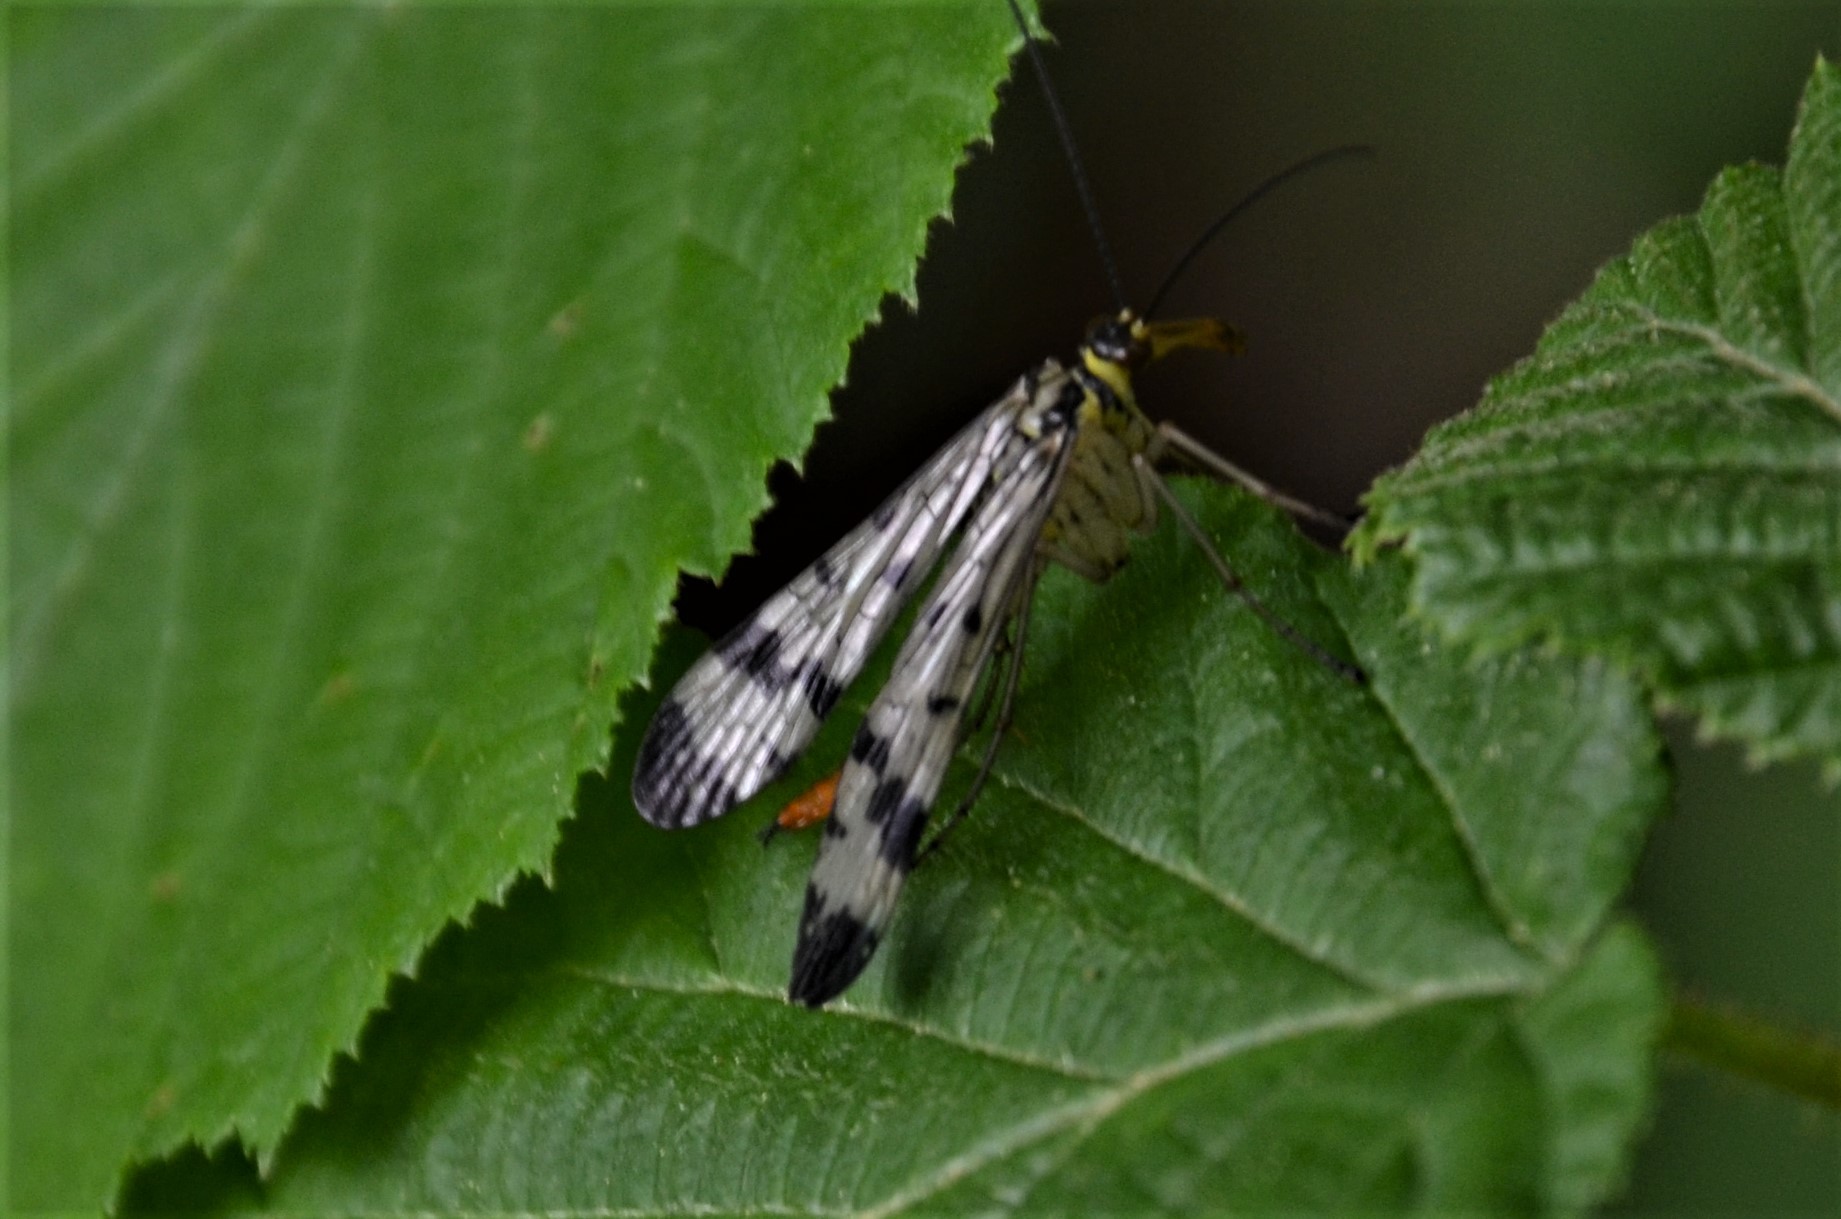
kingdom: Animalia
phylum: Arthropoda
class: Insecta
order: Mecoptera
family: Panorpidae
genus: Panorpa
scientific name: Panorpa communis
